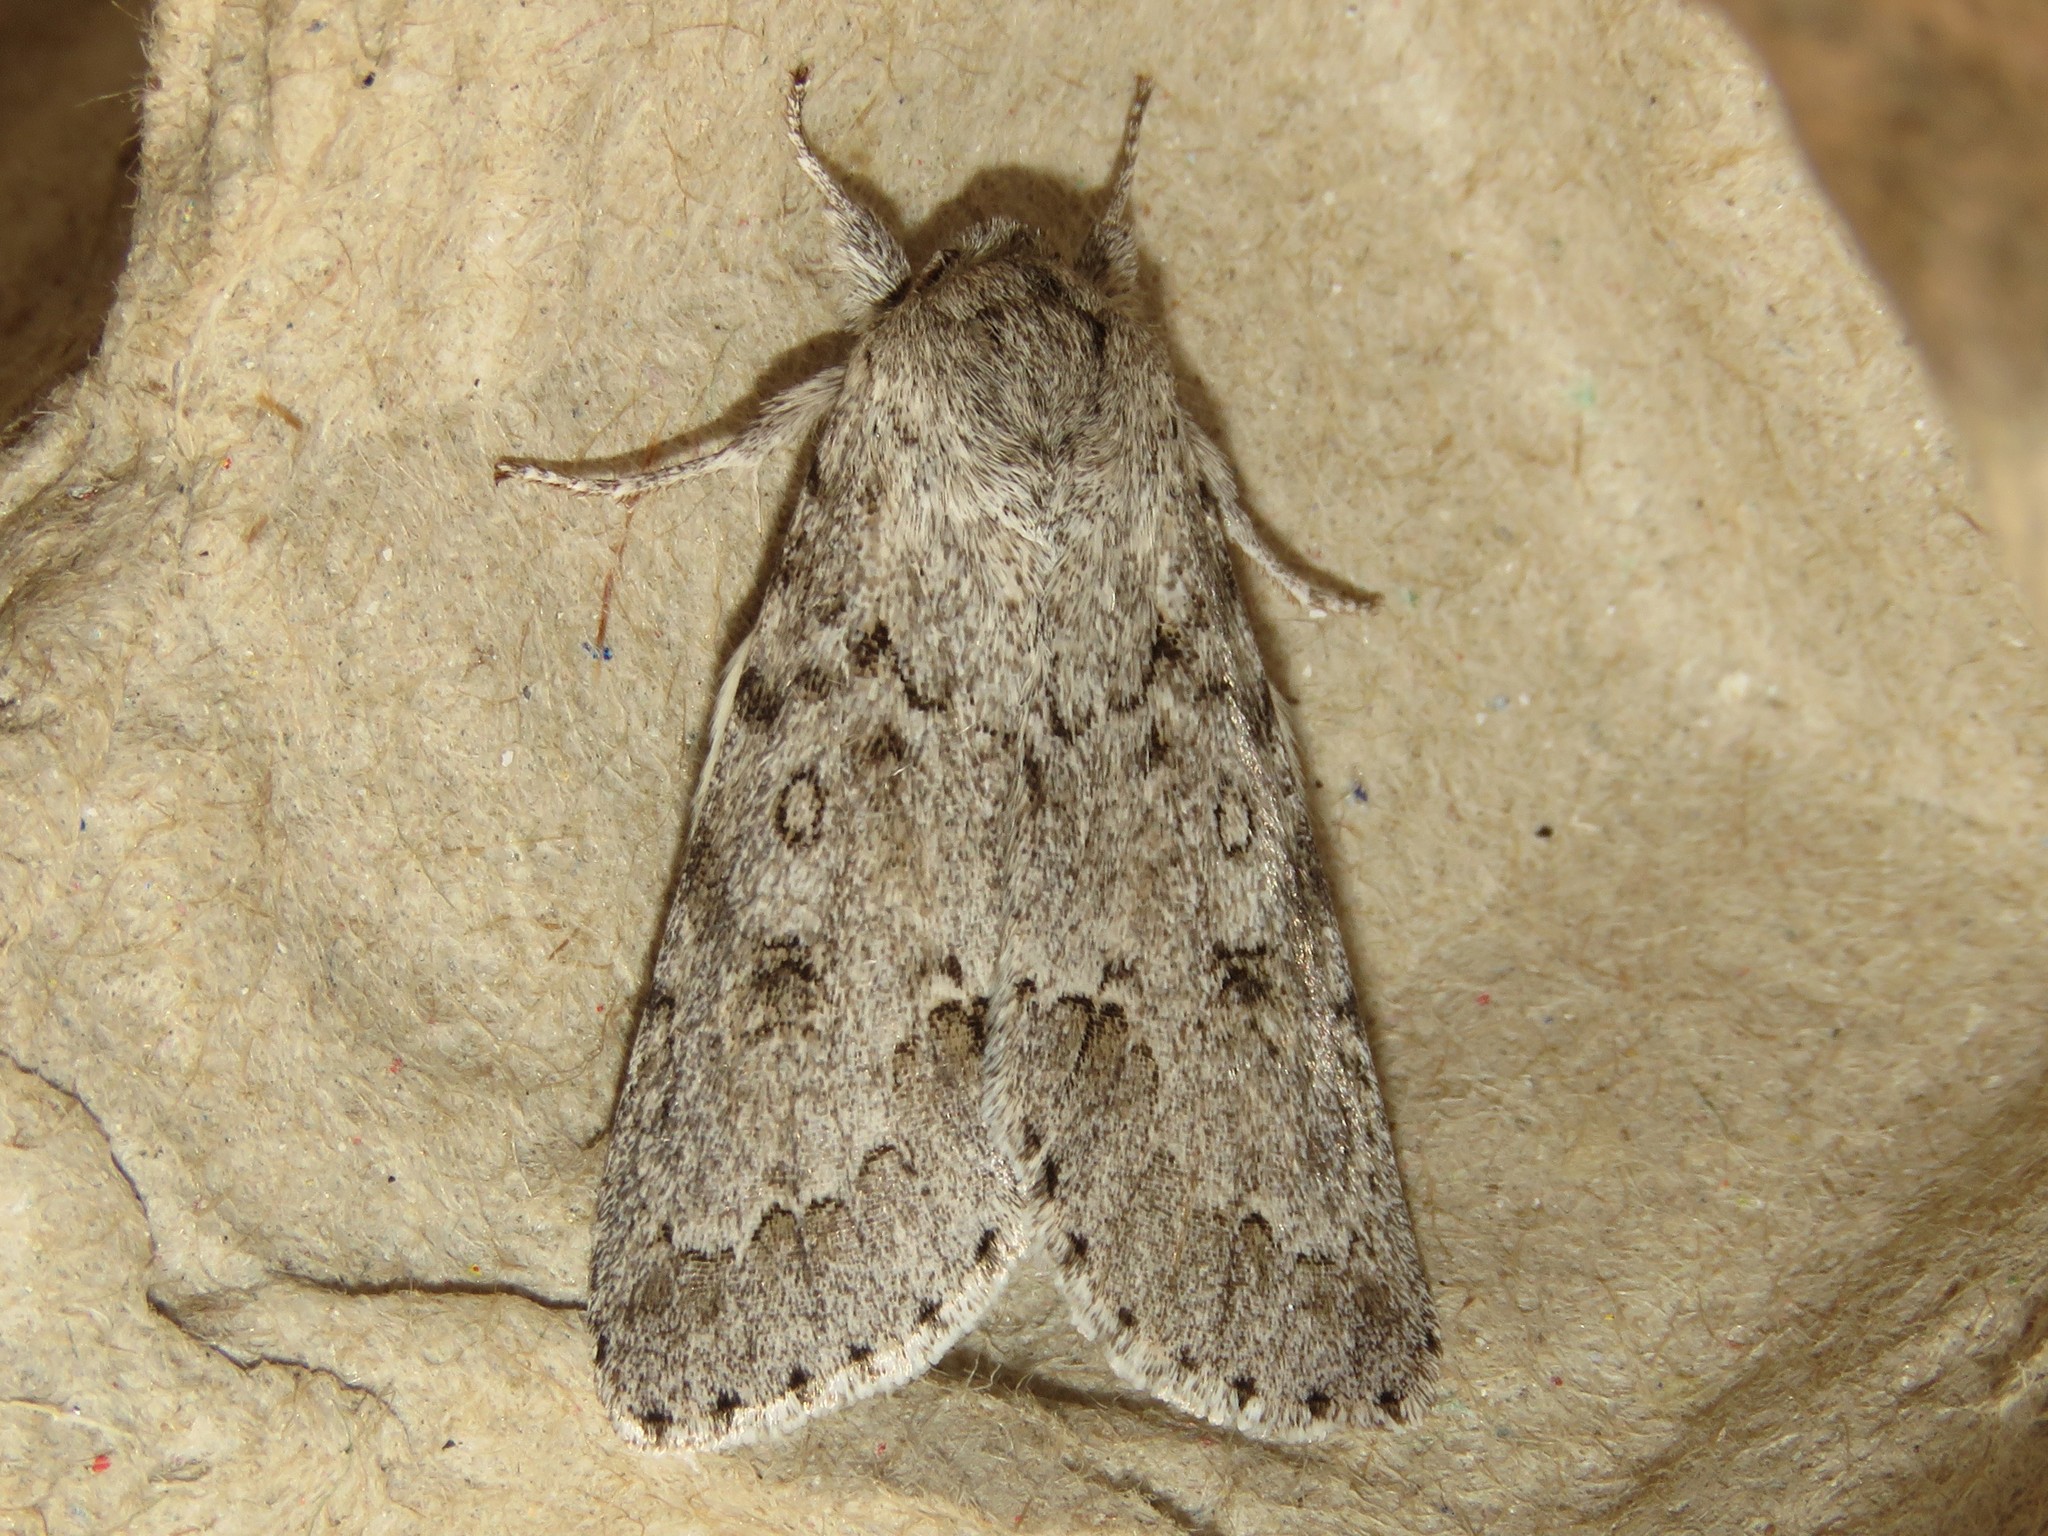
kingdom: Animalia
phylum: Arthropoda
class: Insecta
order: Lepidoptera
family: Noctuidae
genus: Acronicta
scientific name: Acronicta insita
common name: Large gray dagger
